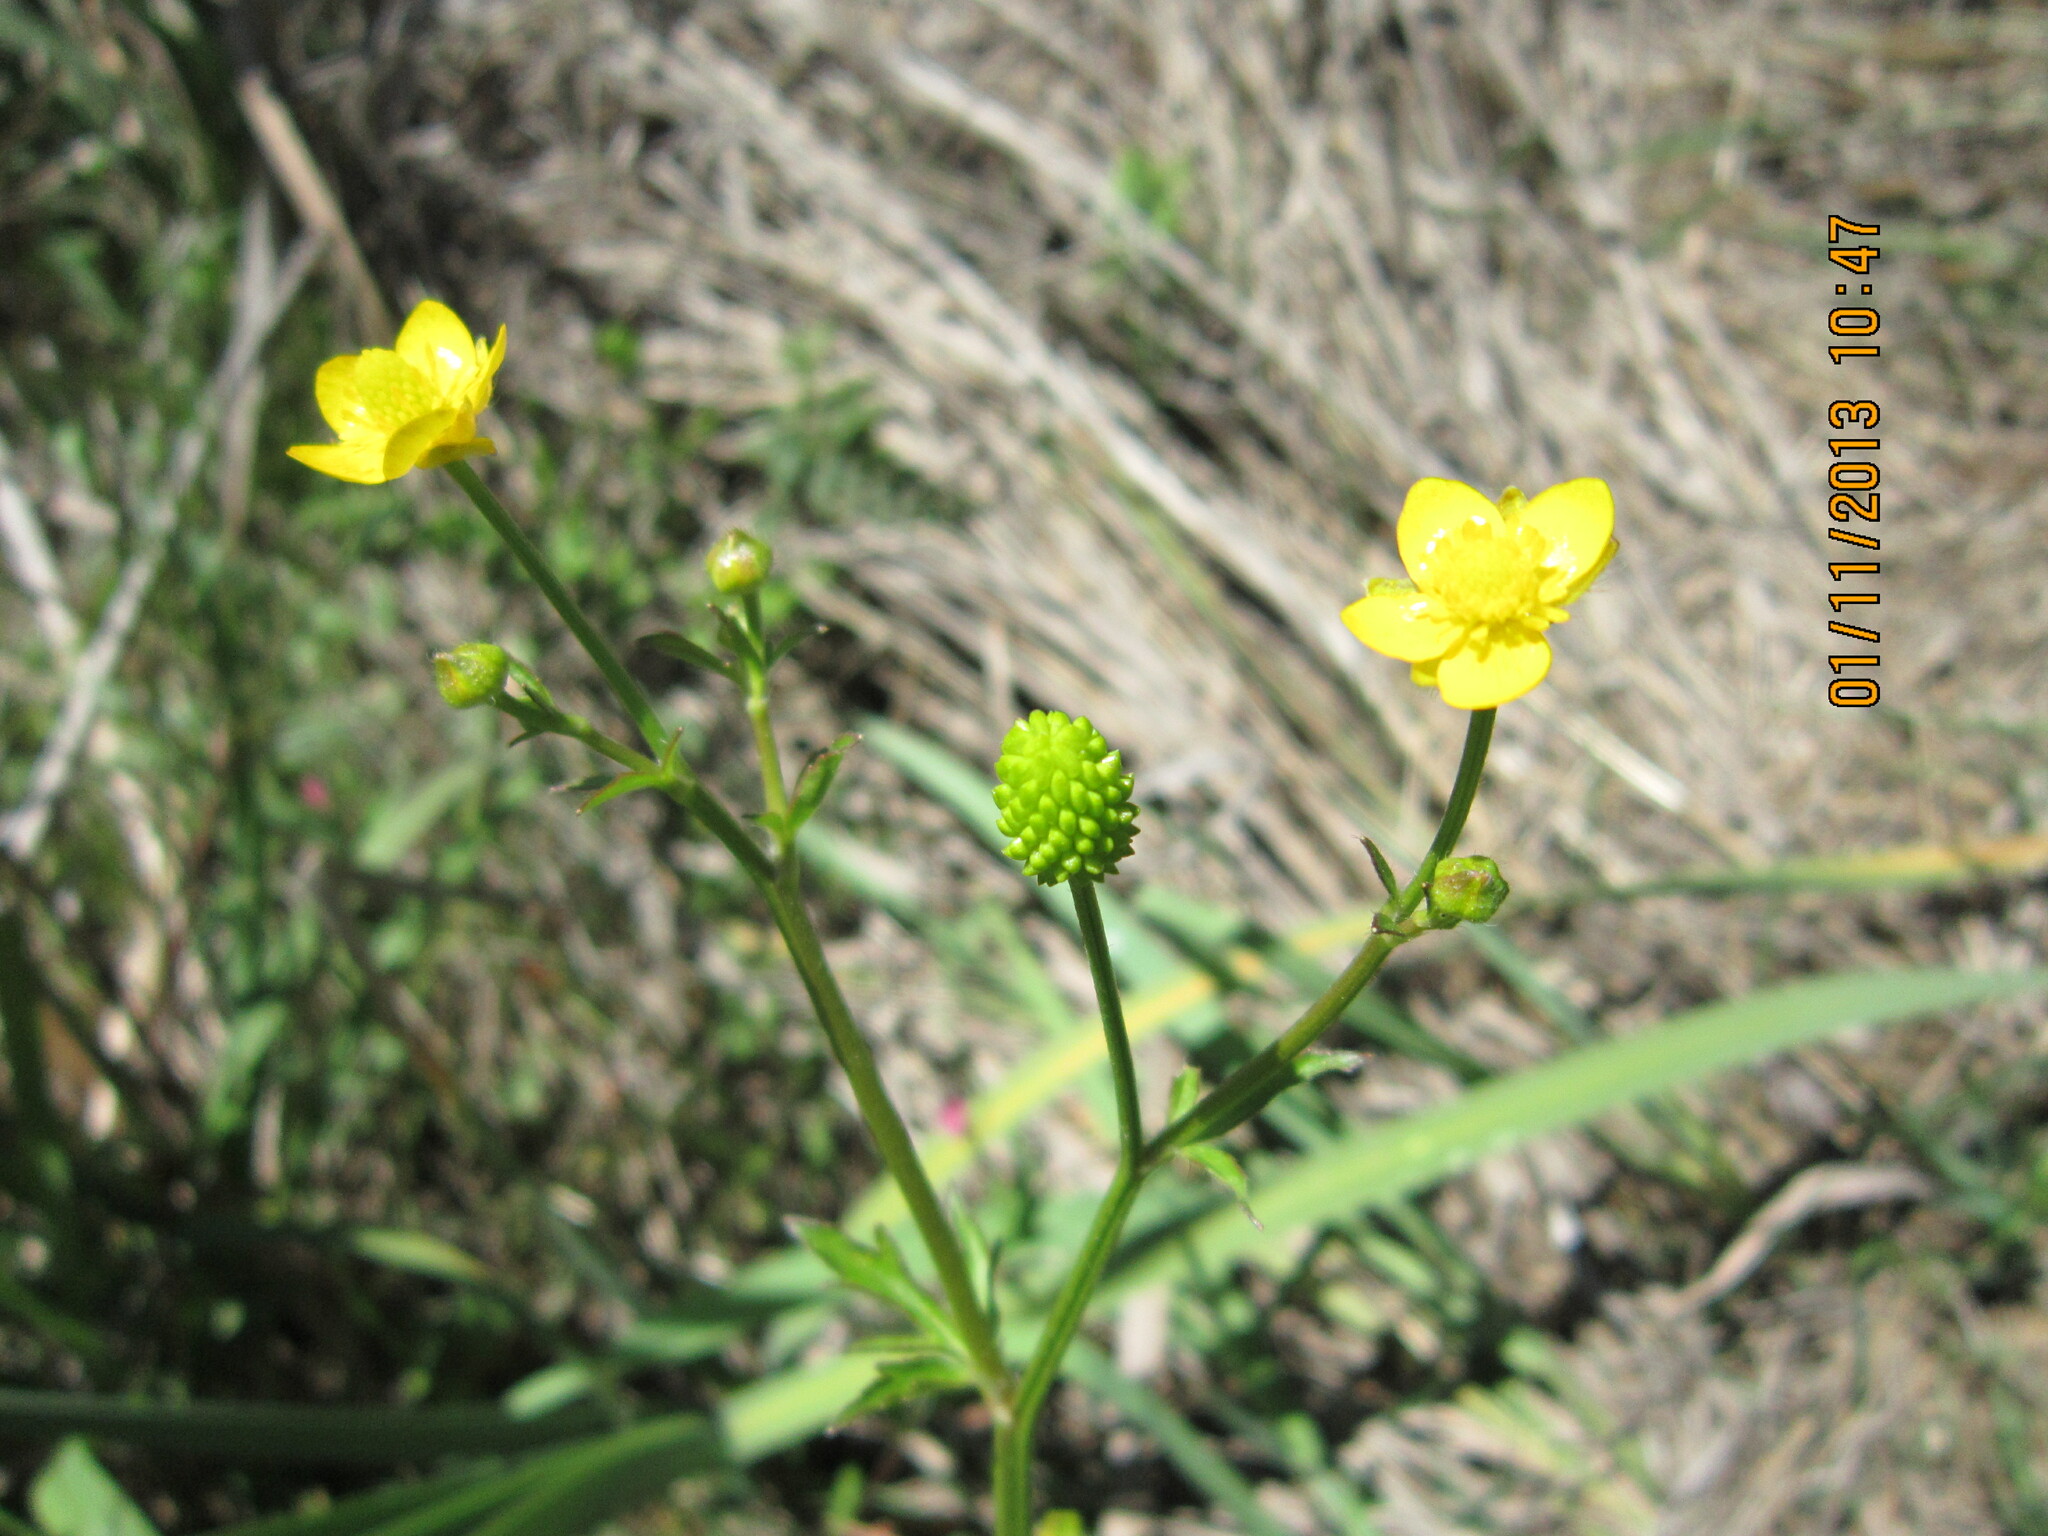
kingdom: Plantae
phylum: Tracheophyta
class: Magnoliopsida
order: Ranunculales
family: Ranunculaceae
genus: Ranunculus
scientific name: Ranunculus multifidus
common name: Wild buttercup
